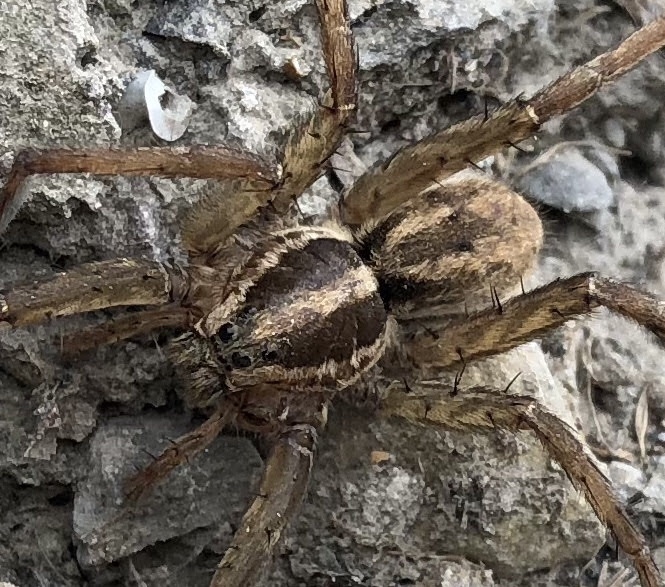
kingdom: Animalia
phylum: Arthropoda
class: Arachnida
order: Araneae
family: Lycosidae
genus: Hogna
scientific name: Hogna radiata
